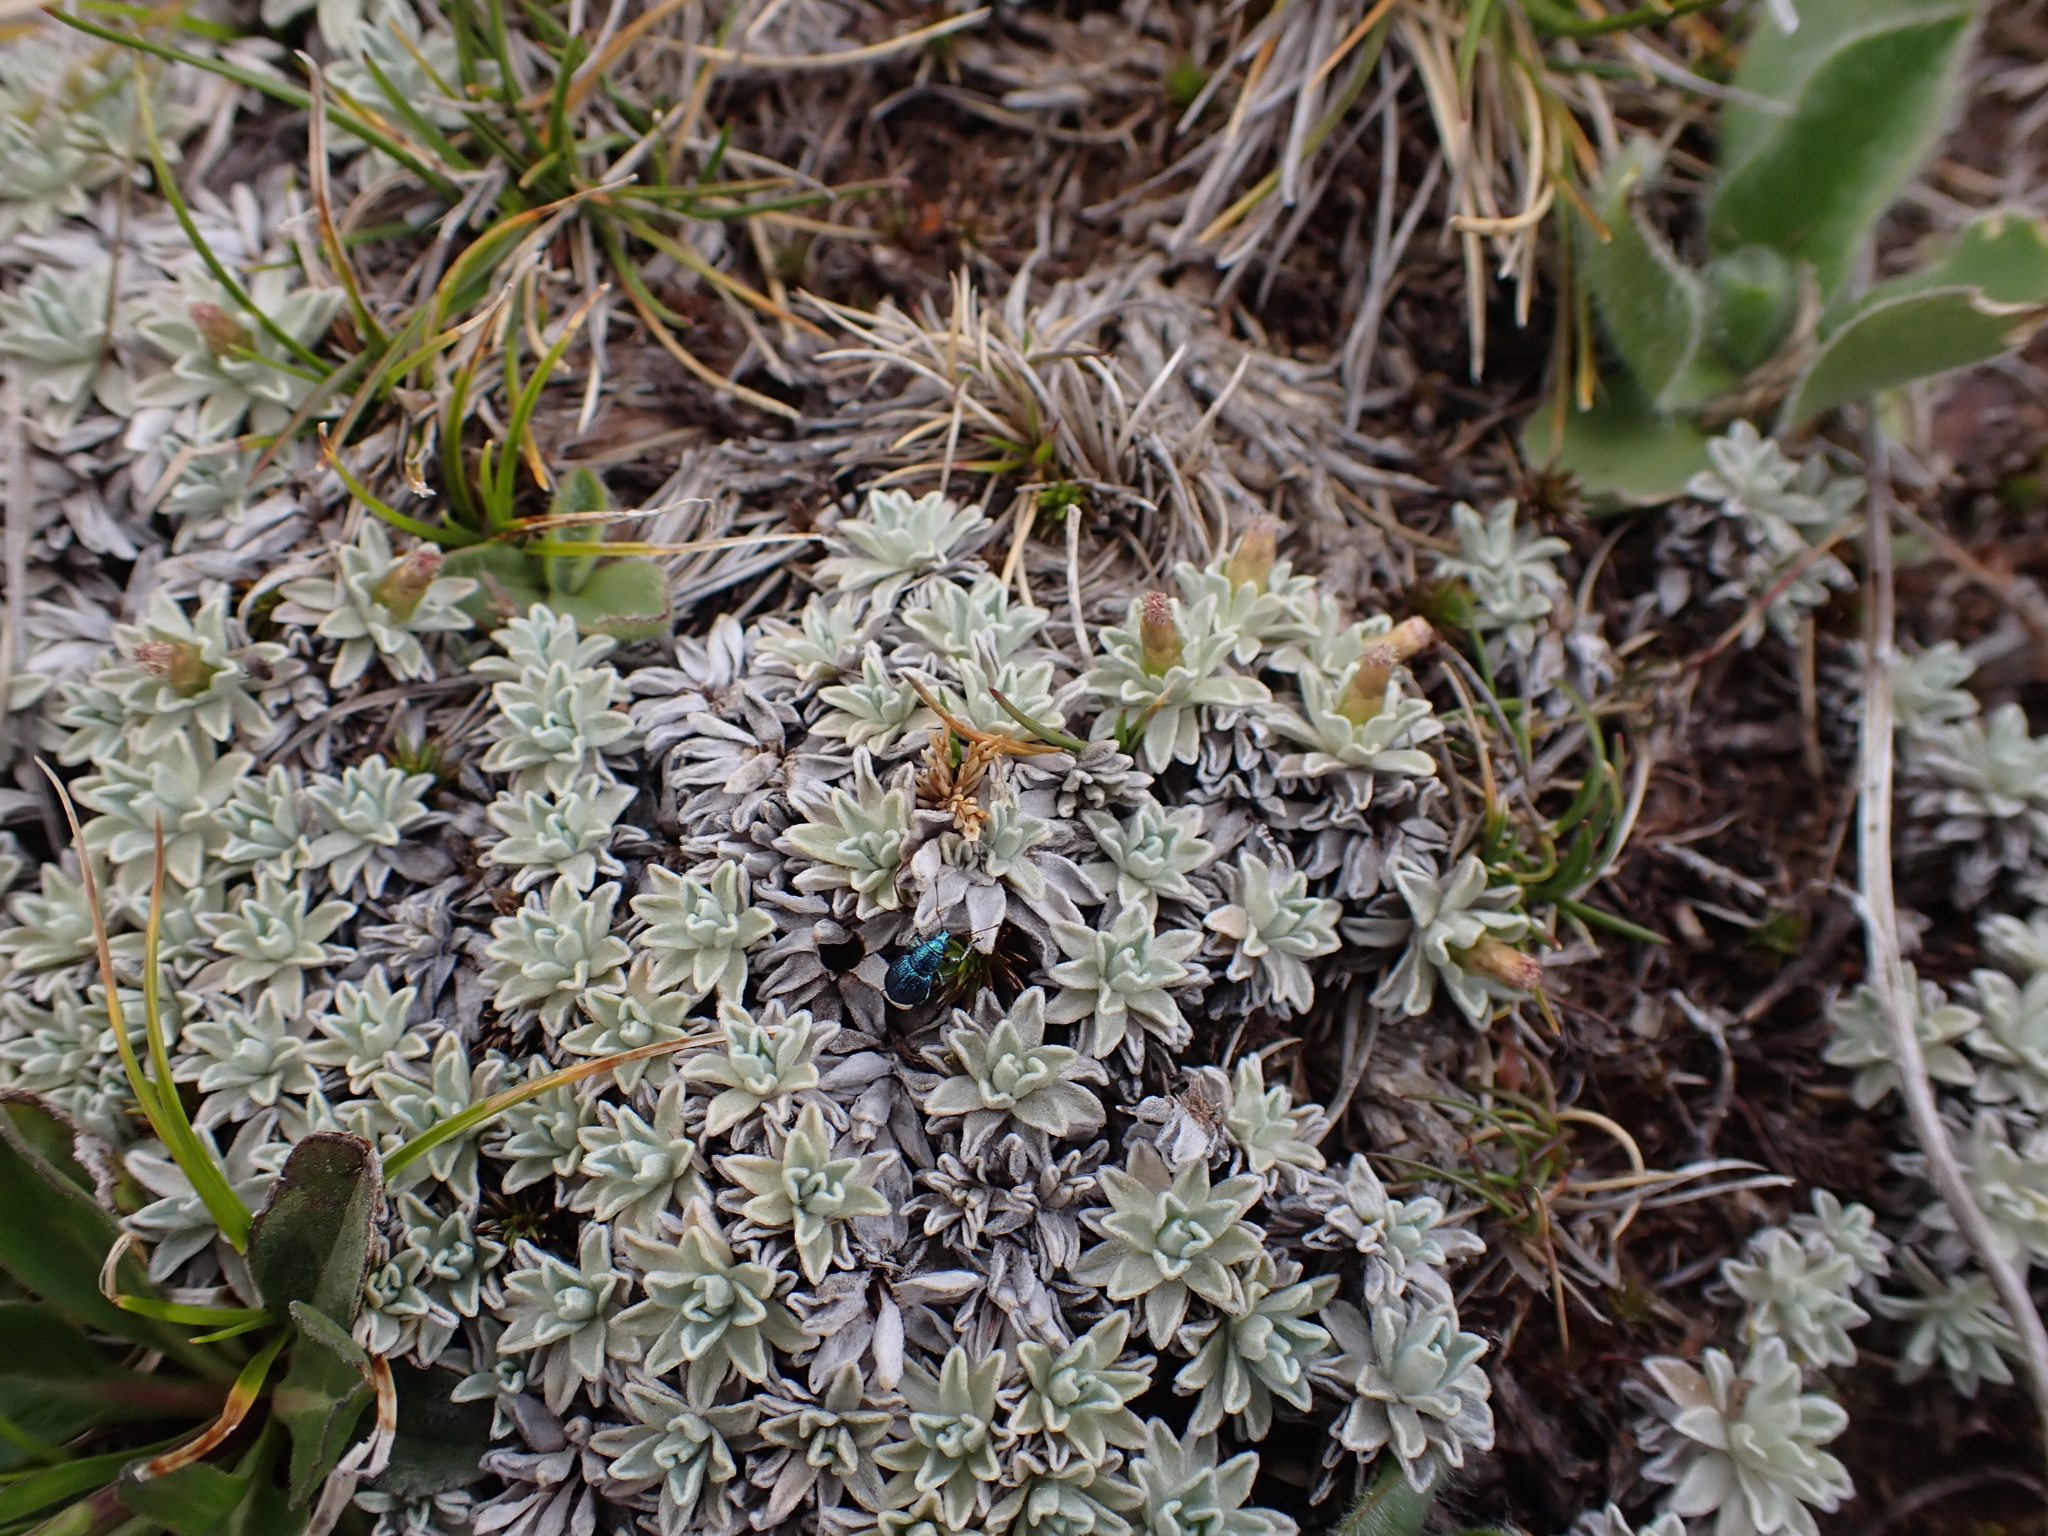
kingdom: Plantae
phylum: Tracheophyta
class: Magnoliopsida
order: Asterales
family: Asteraceae
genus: Argyrotegium
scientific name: Argyrotegium nitidulum
